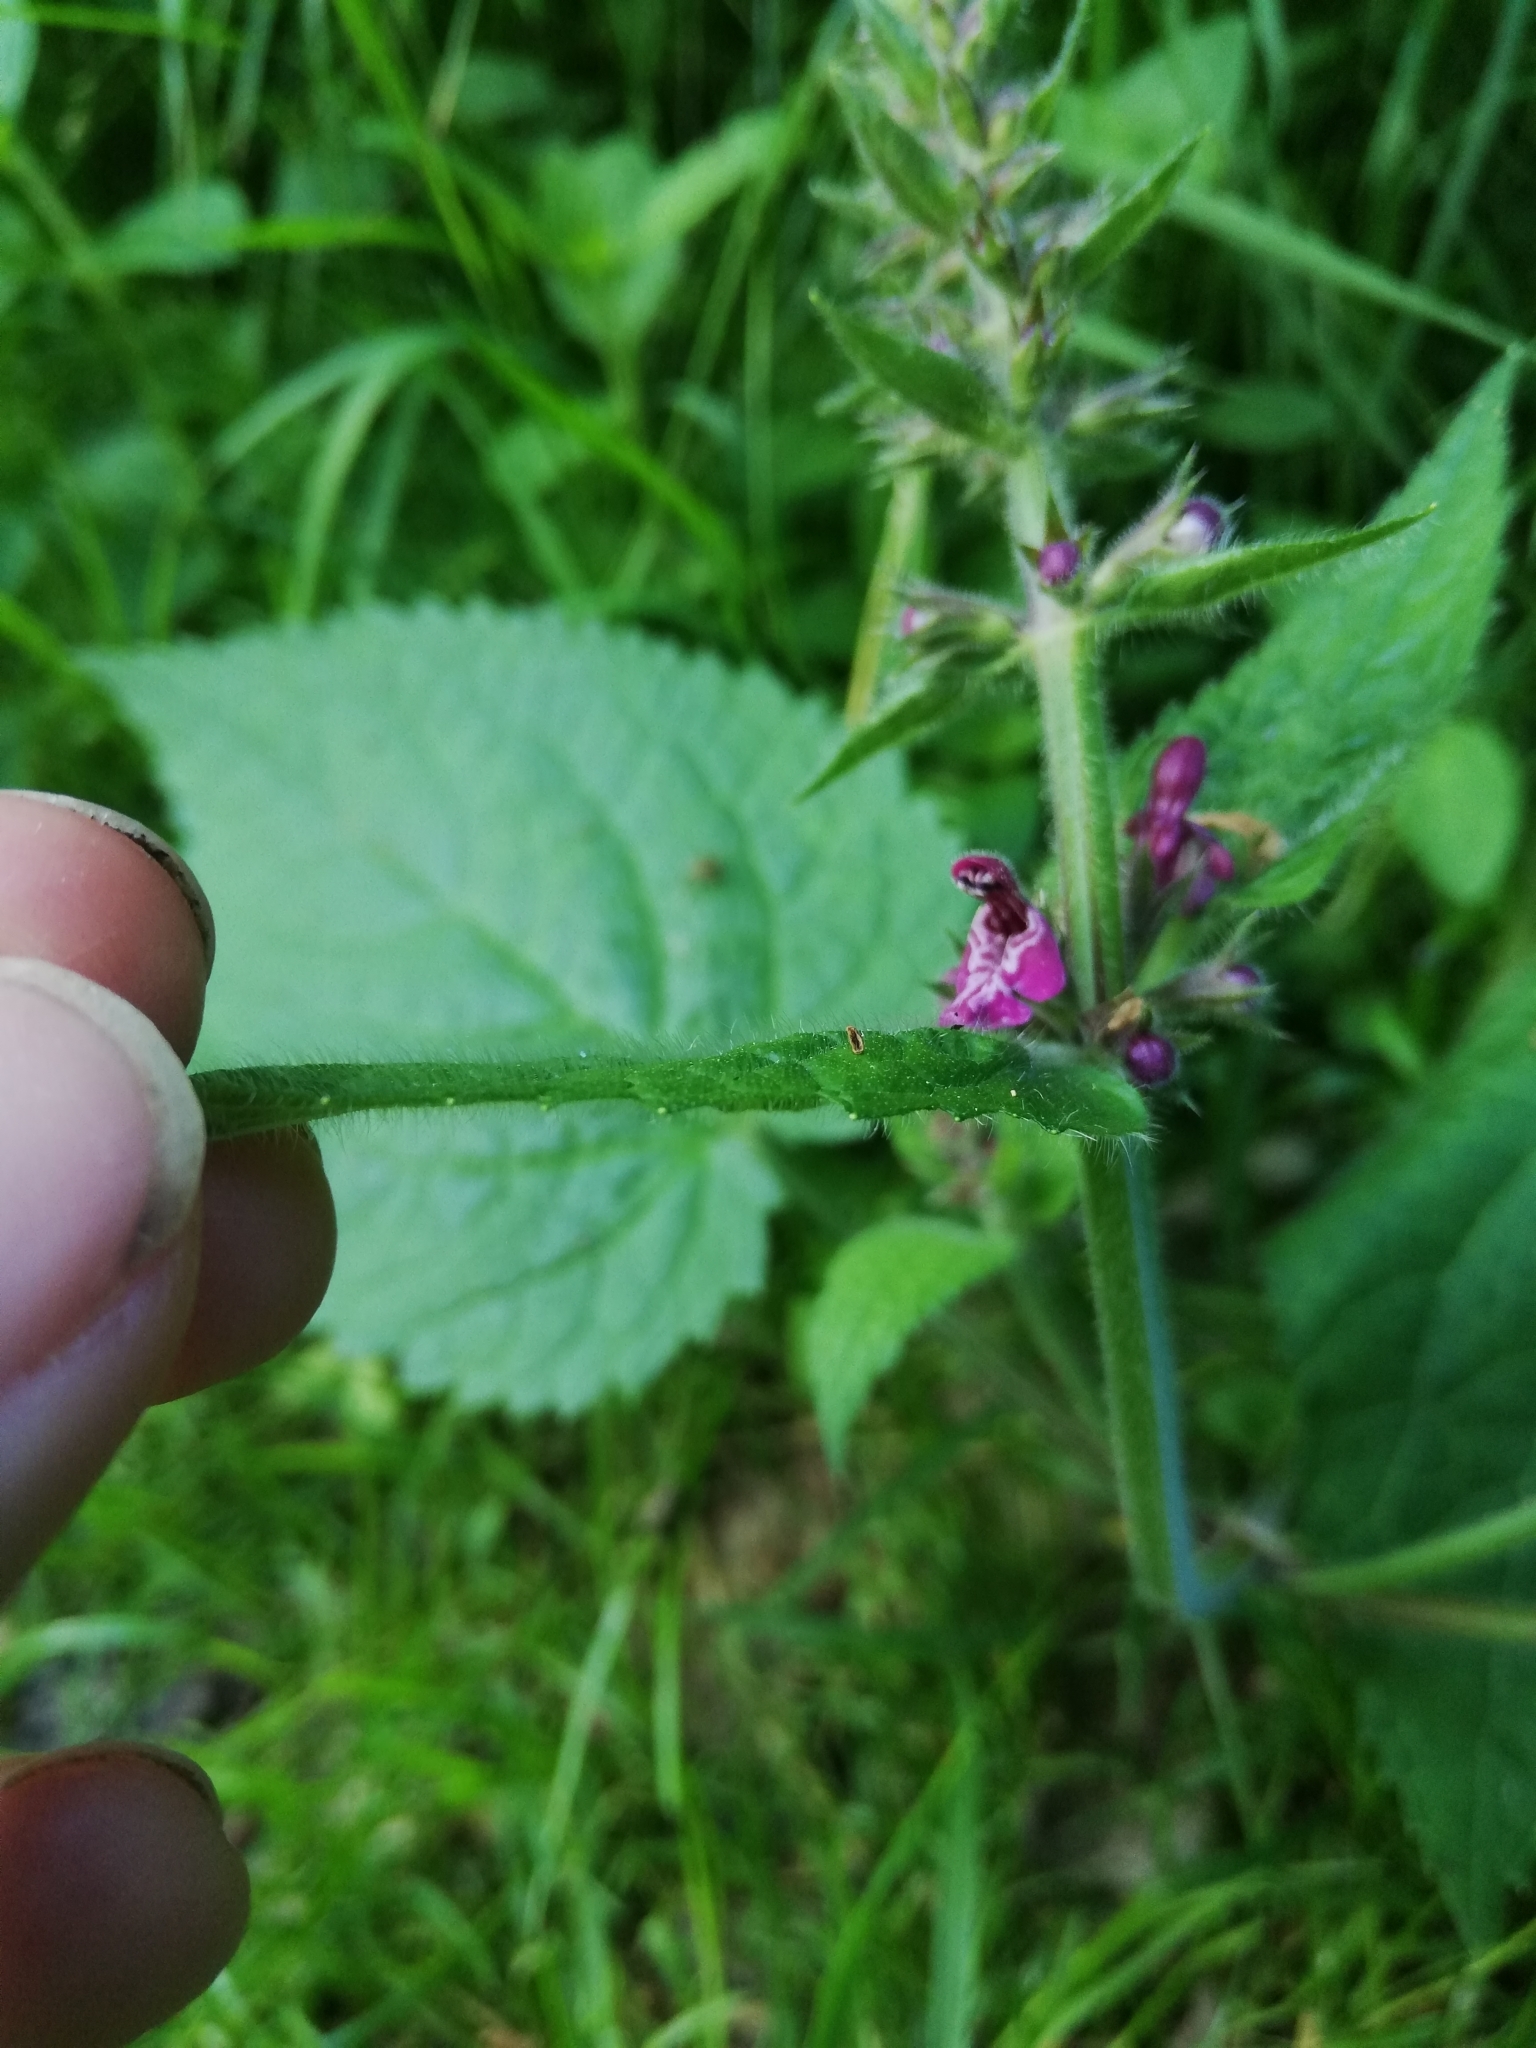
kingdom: Plantae
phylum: Tracheophyta
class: Magnoliopsida
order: Lamiales
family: Lamiaceae
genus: Stachys
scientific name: Stachys sylvatica
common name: Hedge woundwort
